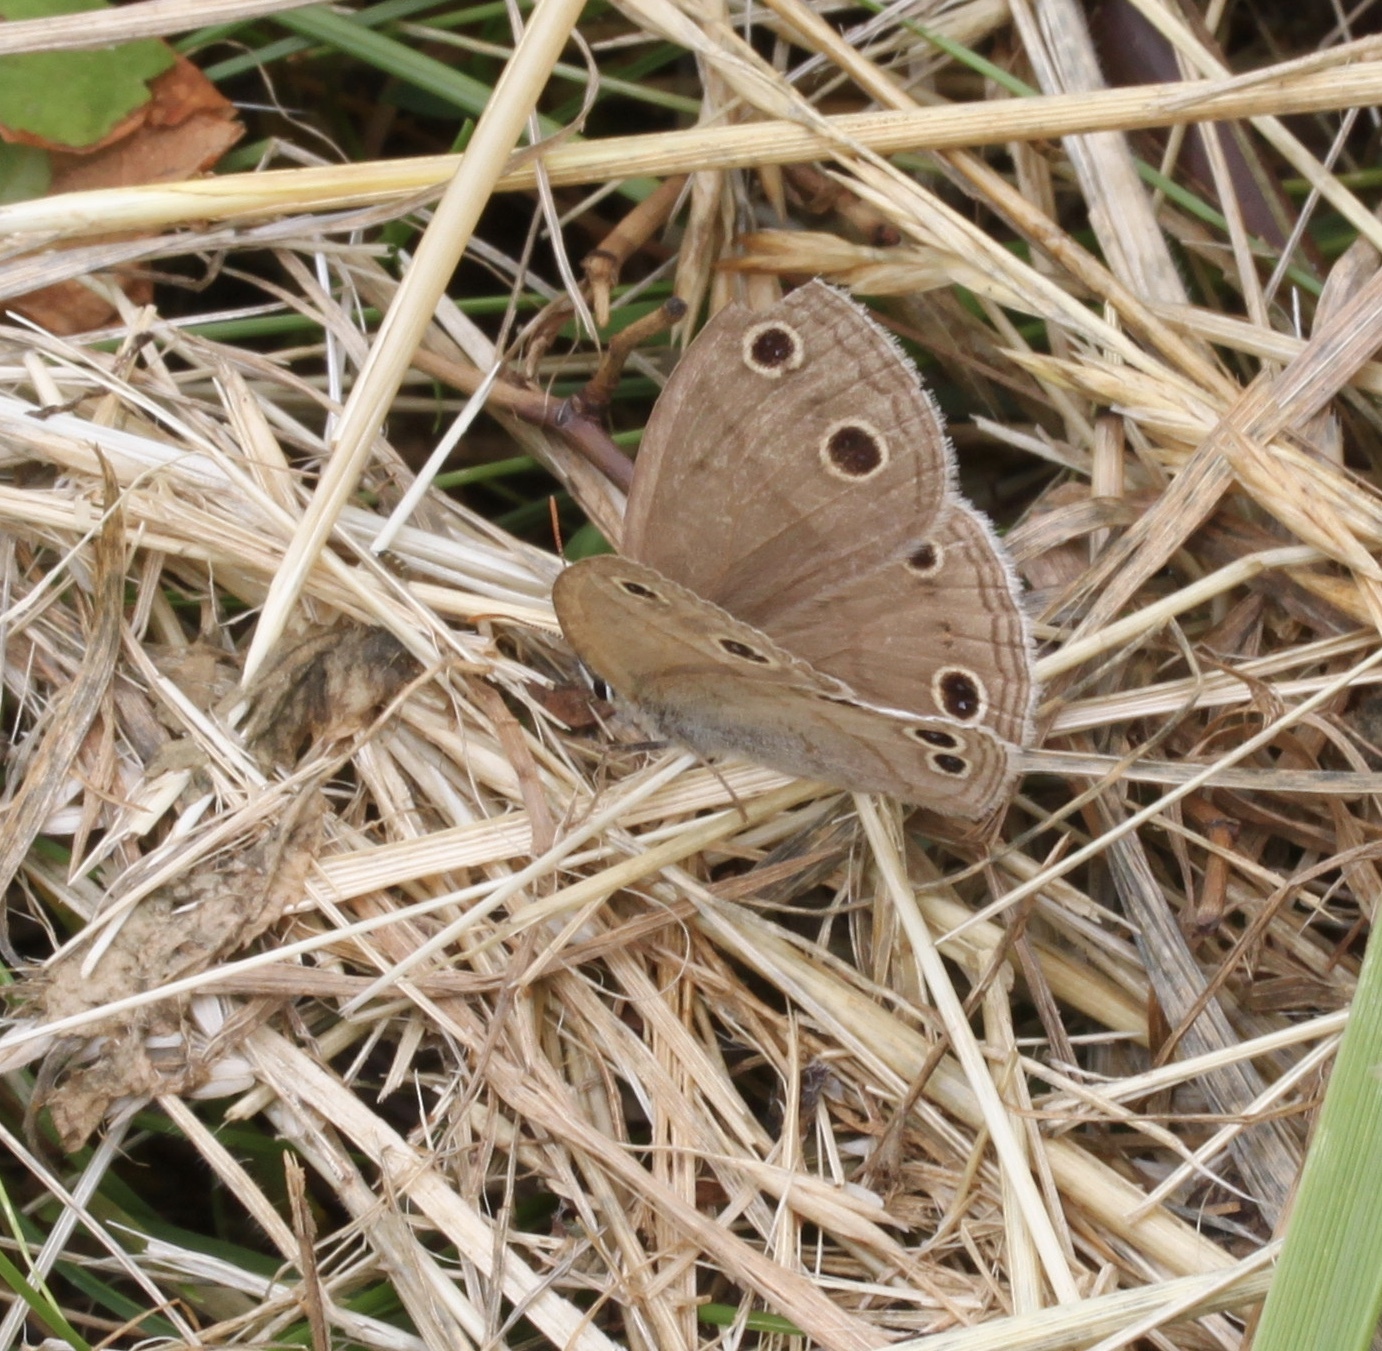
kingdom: Animalia
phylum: Arthropoda
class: Insecta
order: Lepidoptera
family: Nymphalidae
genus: Euptychia
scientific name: Euptychia cymela
